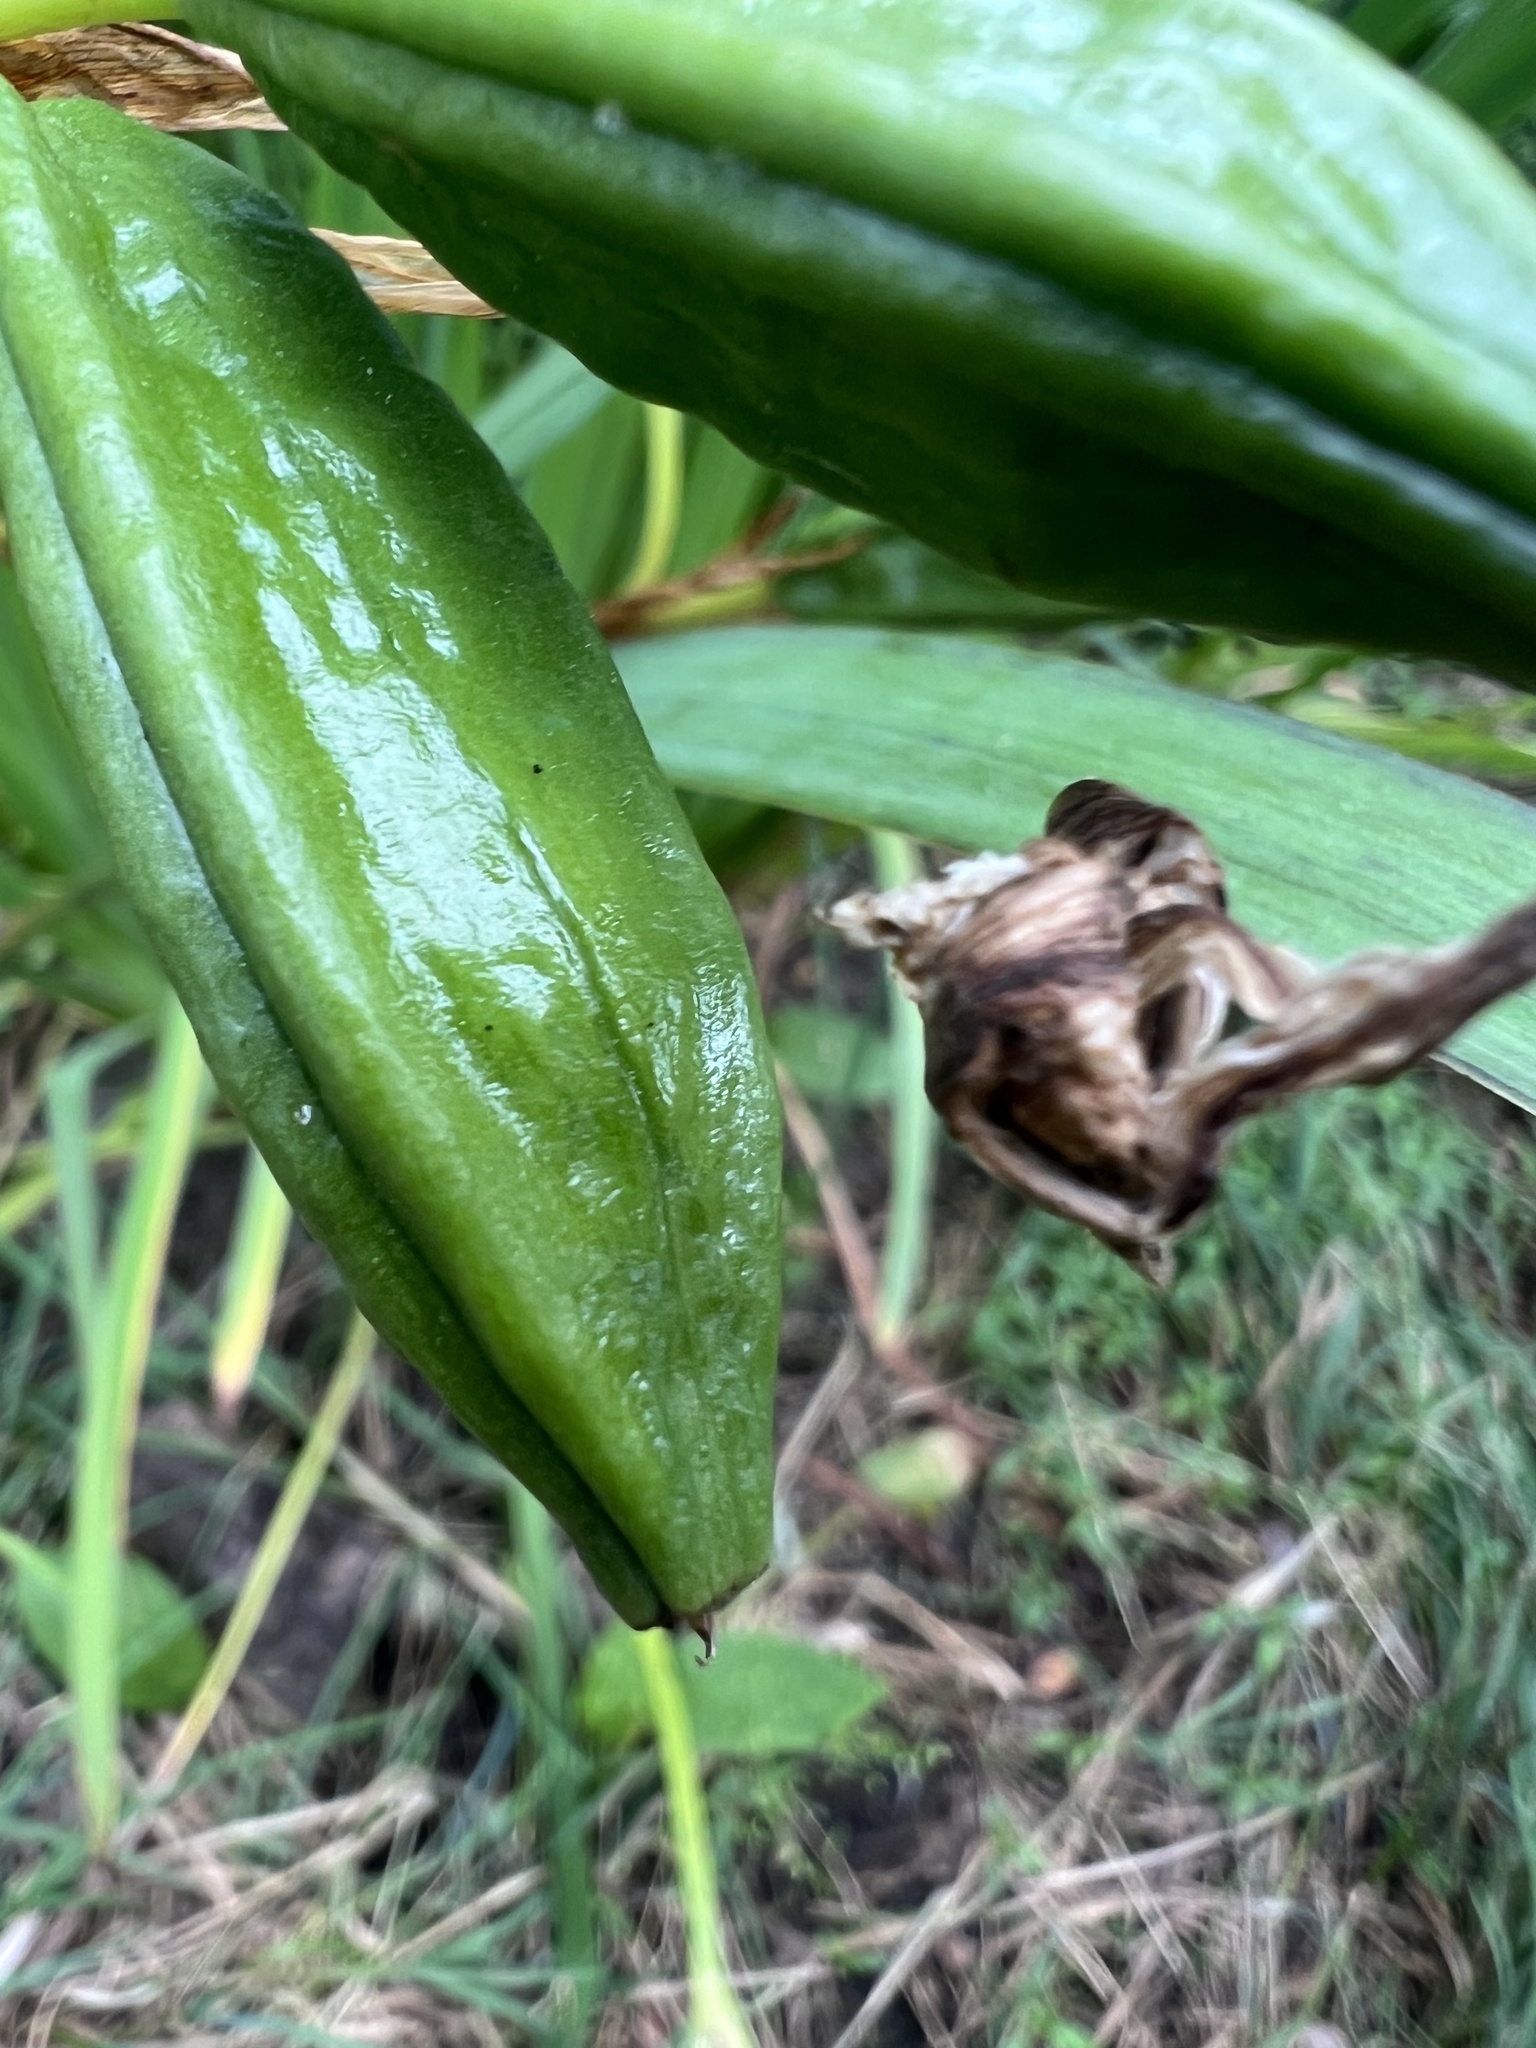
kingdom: Plantae
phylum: Tracheophyta
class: Liliopsida
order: Asparagales
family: Iridaceae
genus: Iris
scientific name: Iris pseudacorus
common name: Yellow flag
